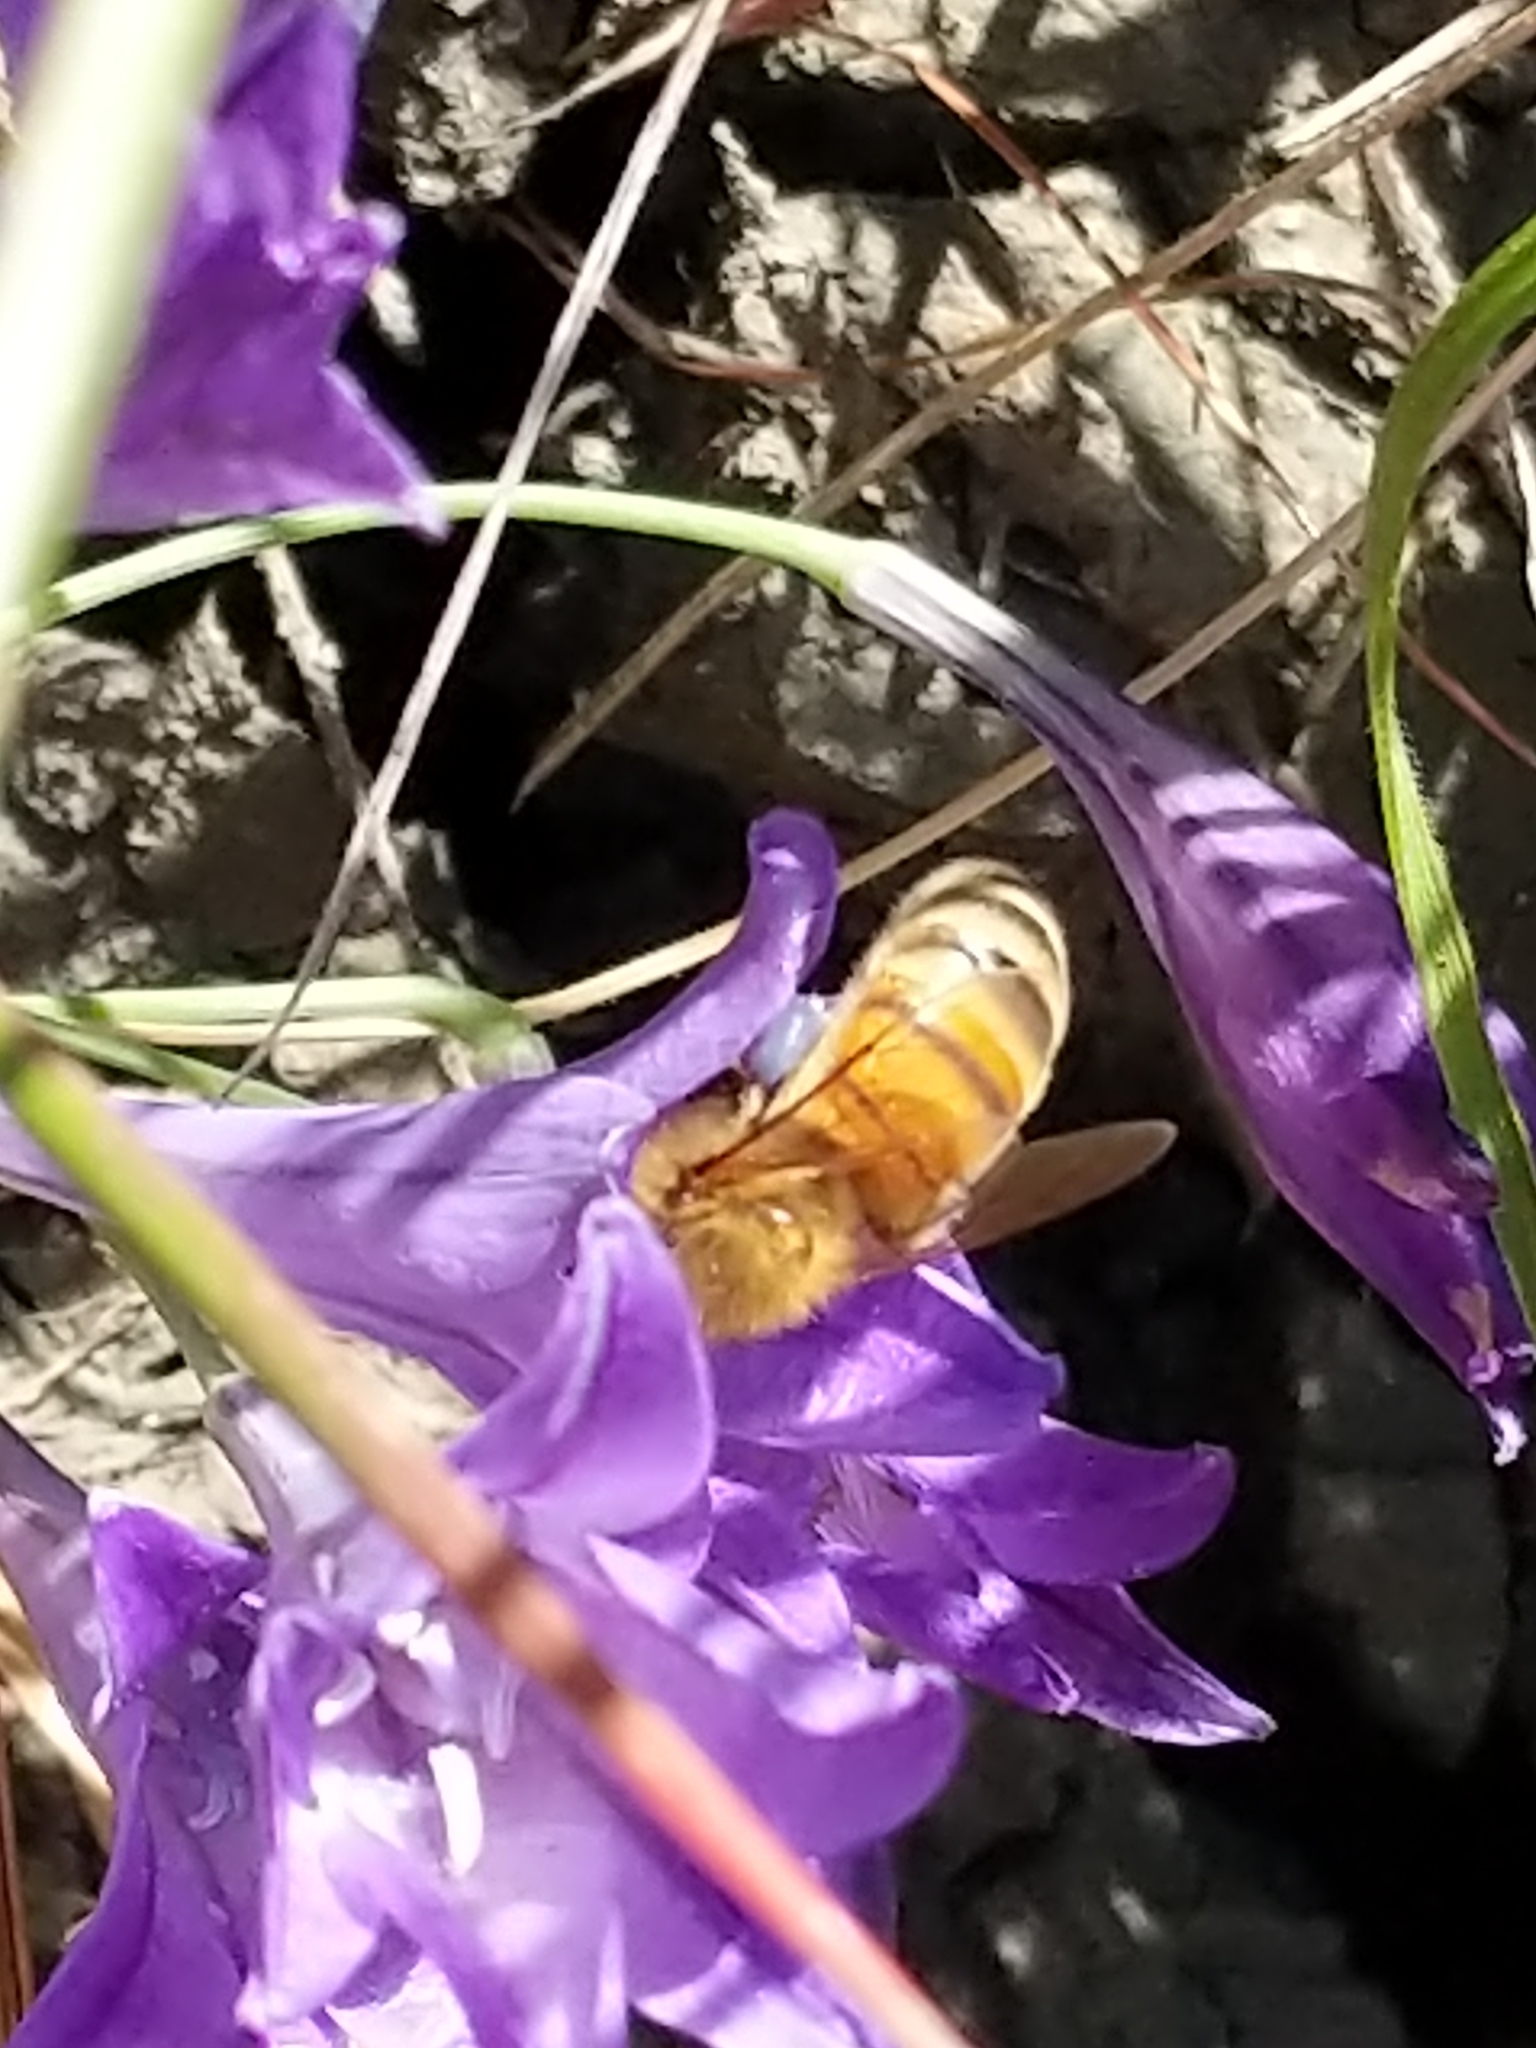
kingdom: Animalia
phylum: Arthropoda
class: Insecta
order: Hymenoptera
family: Apidae
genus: Apis
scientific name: Apis mellifera
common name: Honey bee
